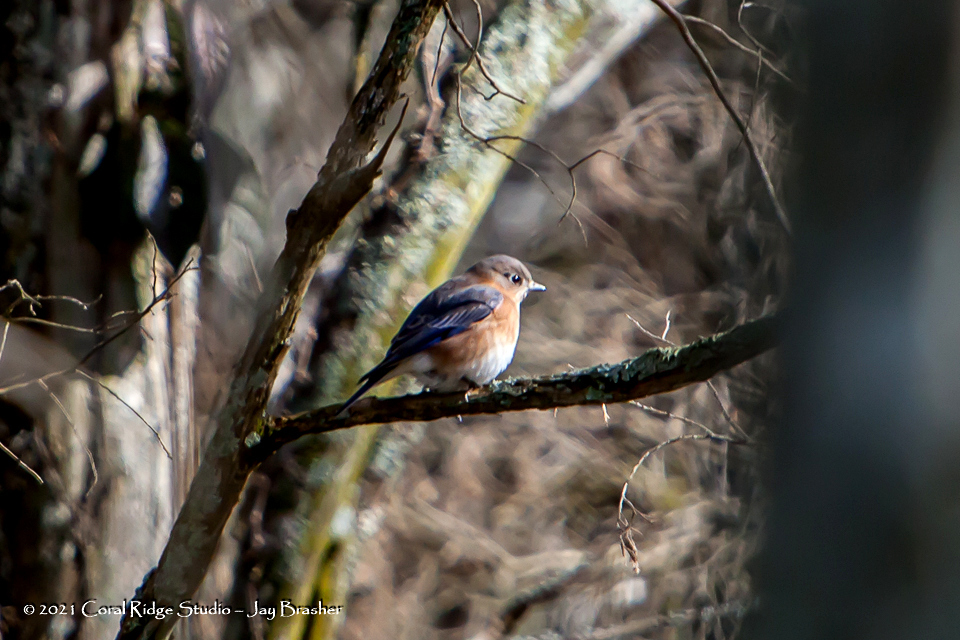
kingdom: Animalia
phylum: Chordata
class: Aves
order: Passeriformes
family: Turdidae
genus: Sialia
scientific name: Sialia sialis
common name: Eastern bluebird
